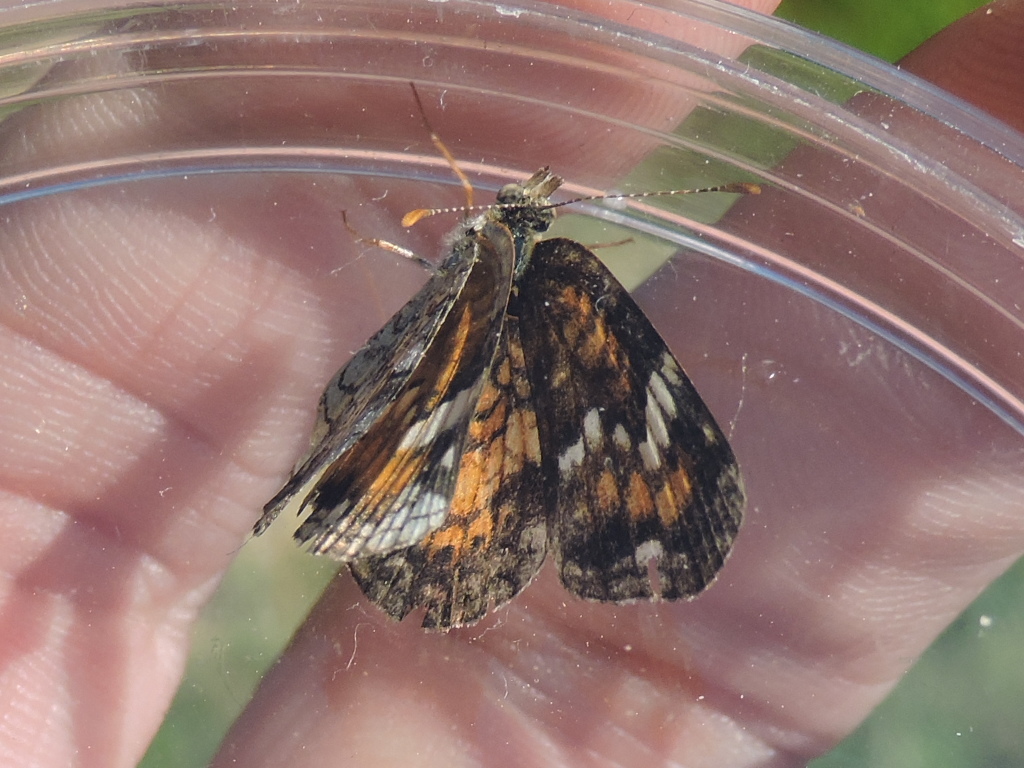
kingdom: Animalia
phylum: Arthropoda
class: Insecta
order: Lepidoptera
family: Nymphalidae
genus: Phyciodes
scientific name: Phyciodes phaon
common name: Phaon crescent
